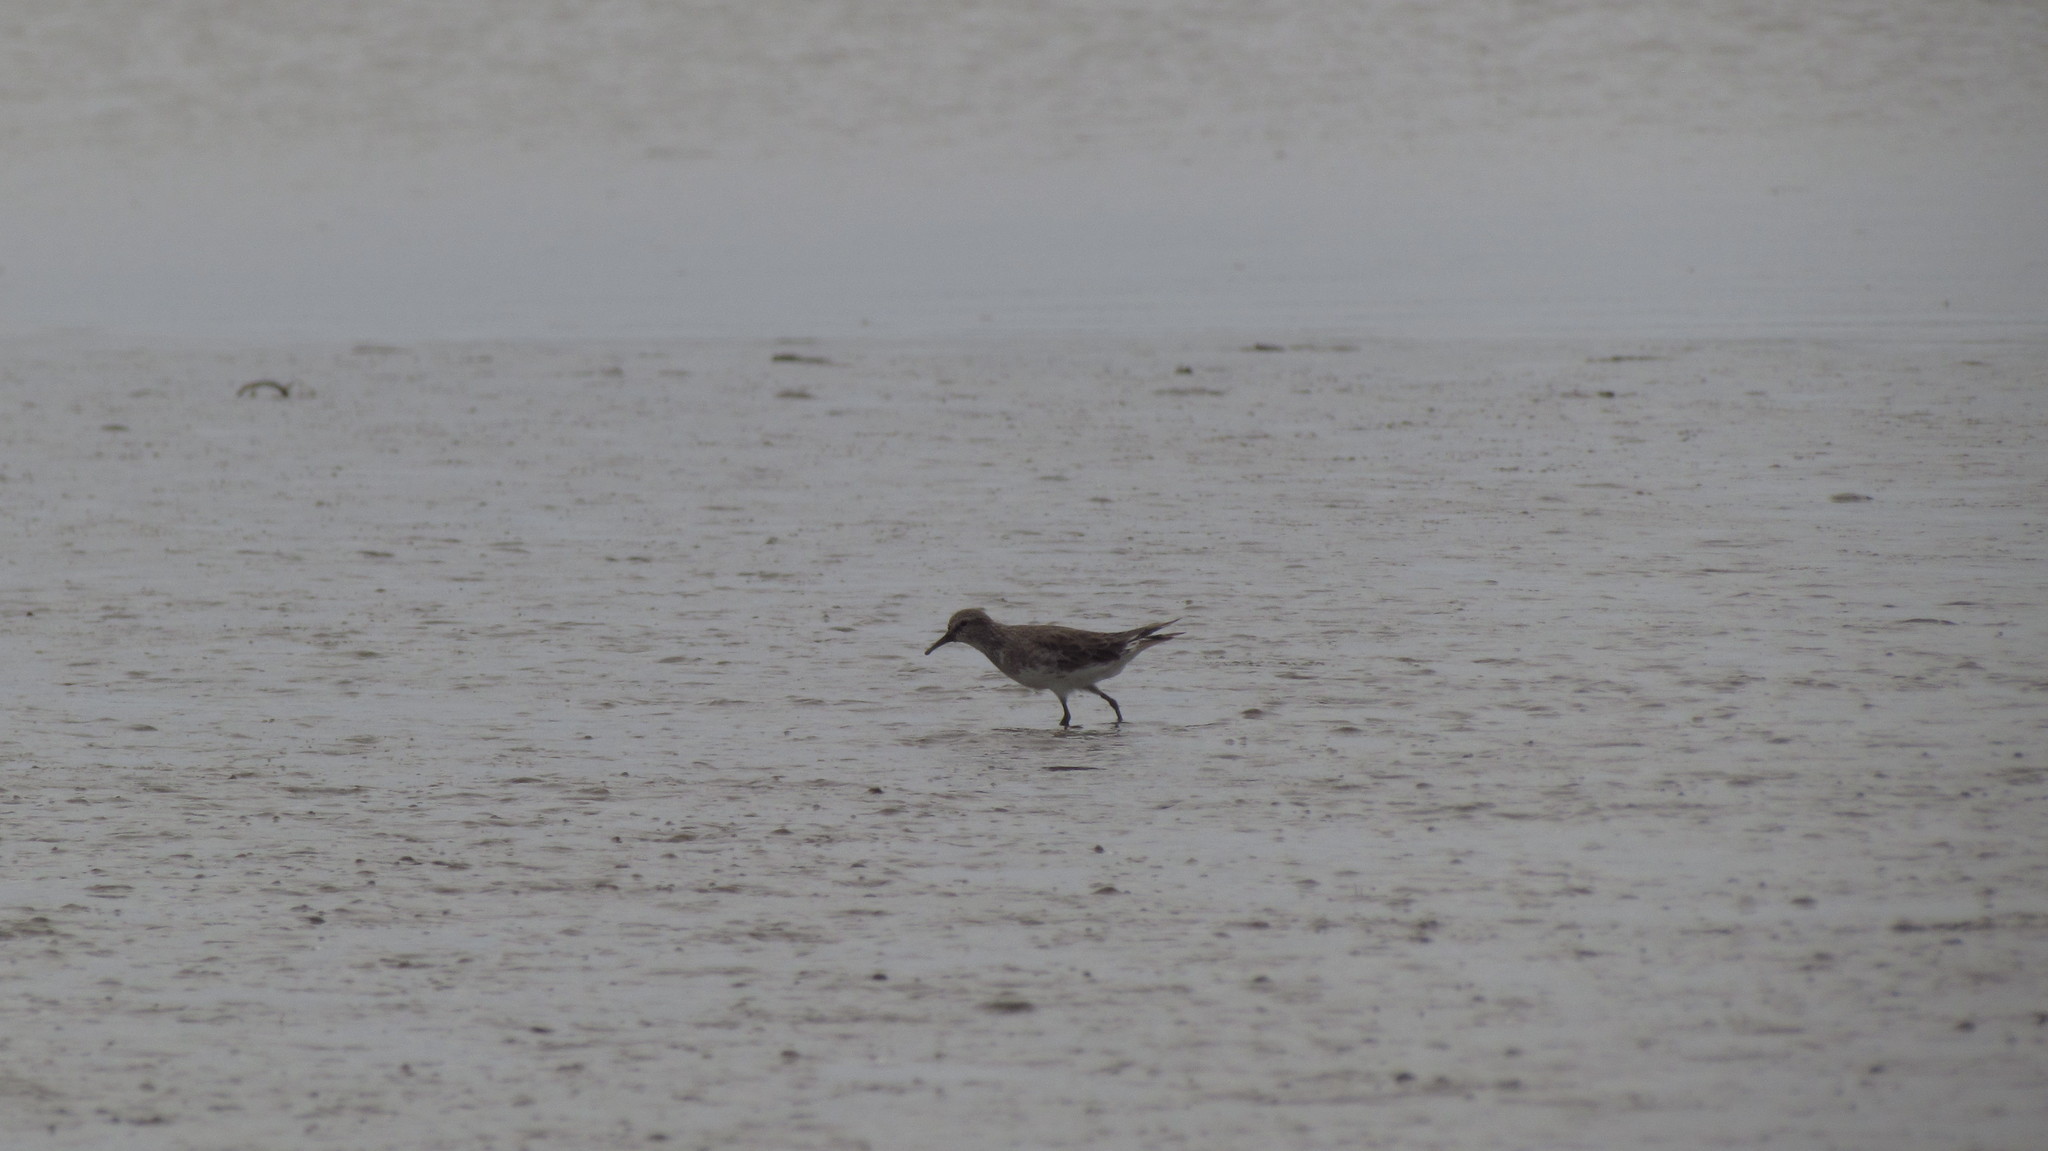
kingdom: Animalia
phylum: Chordata
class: Aves
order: Charadriiformes
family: Scolopacidae
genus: Calidris
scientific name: Calidris fuscicollis
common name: White-rumped sandpiper
